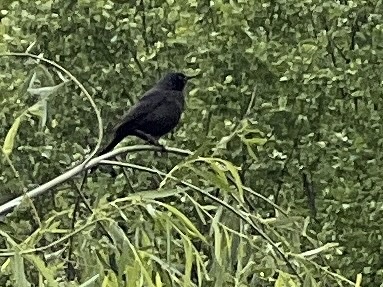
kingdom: Animalia
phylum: Chordata
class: Aves
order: Passeriformes
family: Icteridae
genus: Quiscalus
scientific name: Quiscalus quiscula
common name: Common grackle
